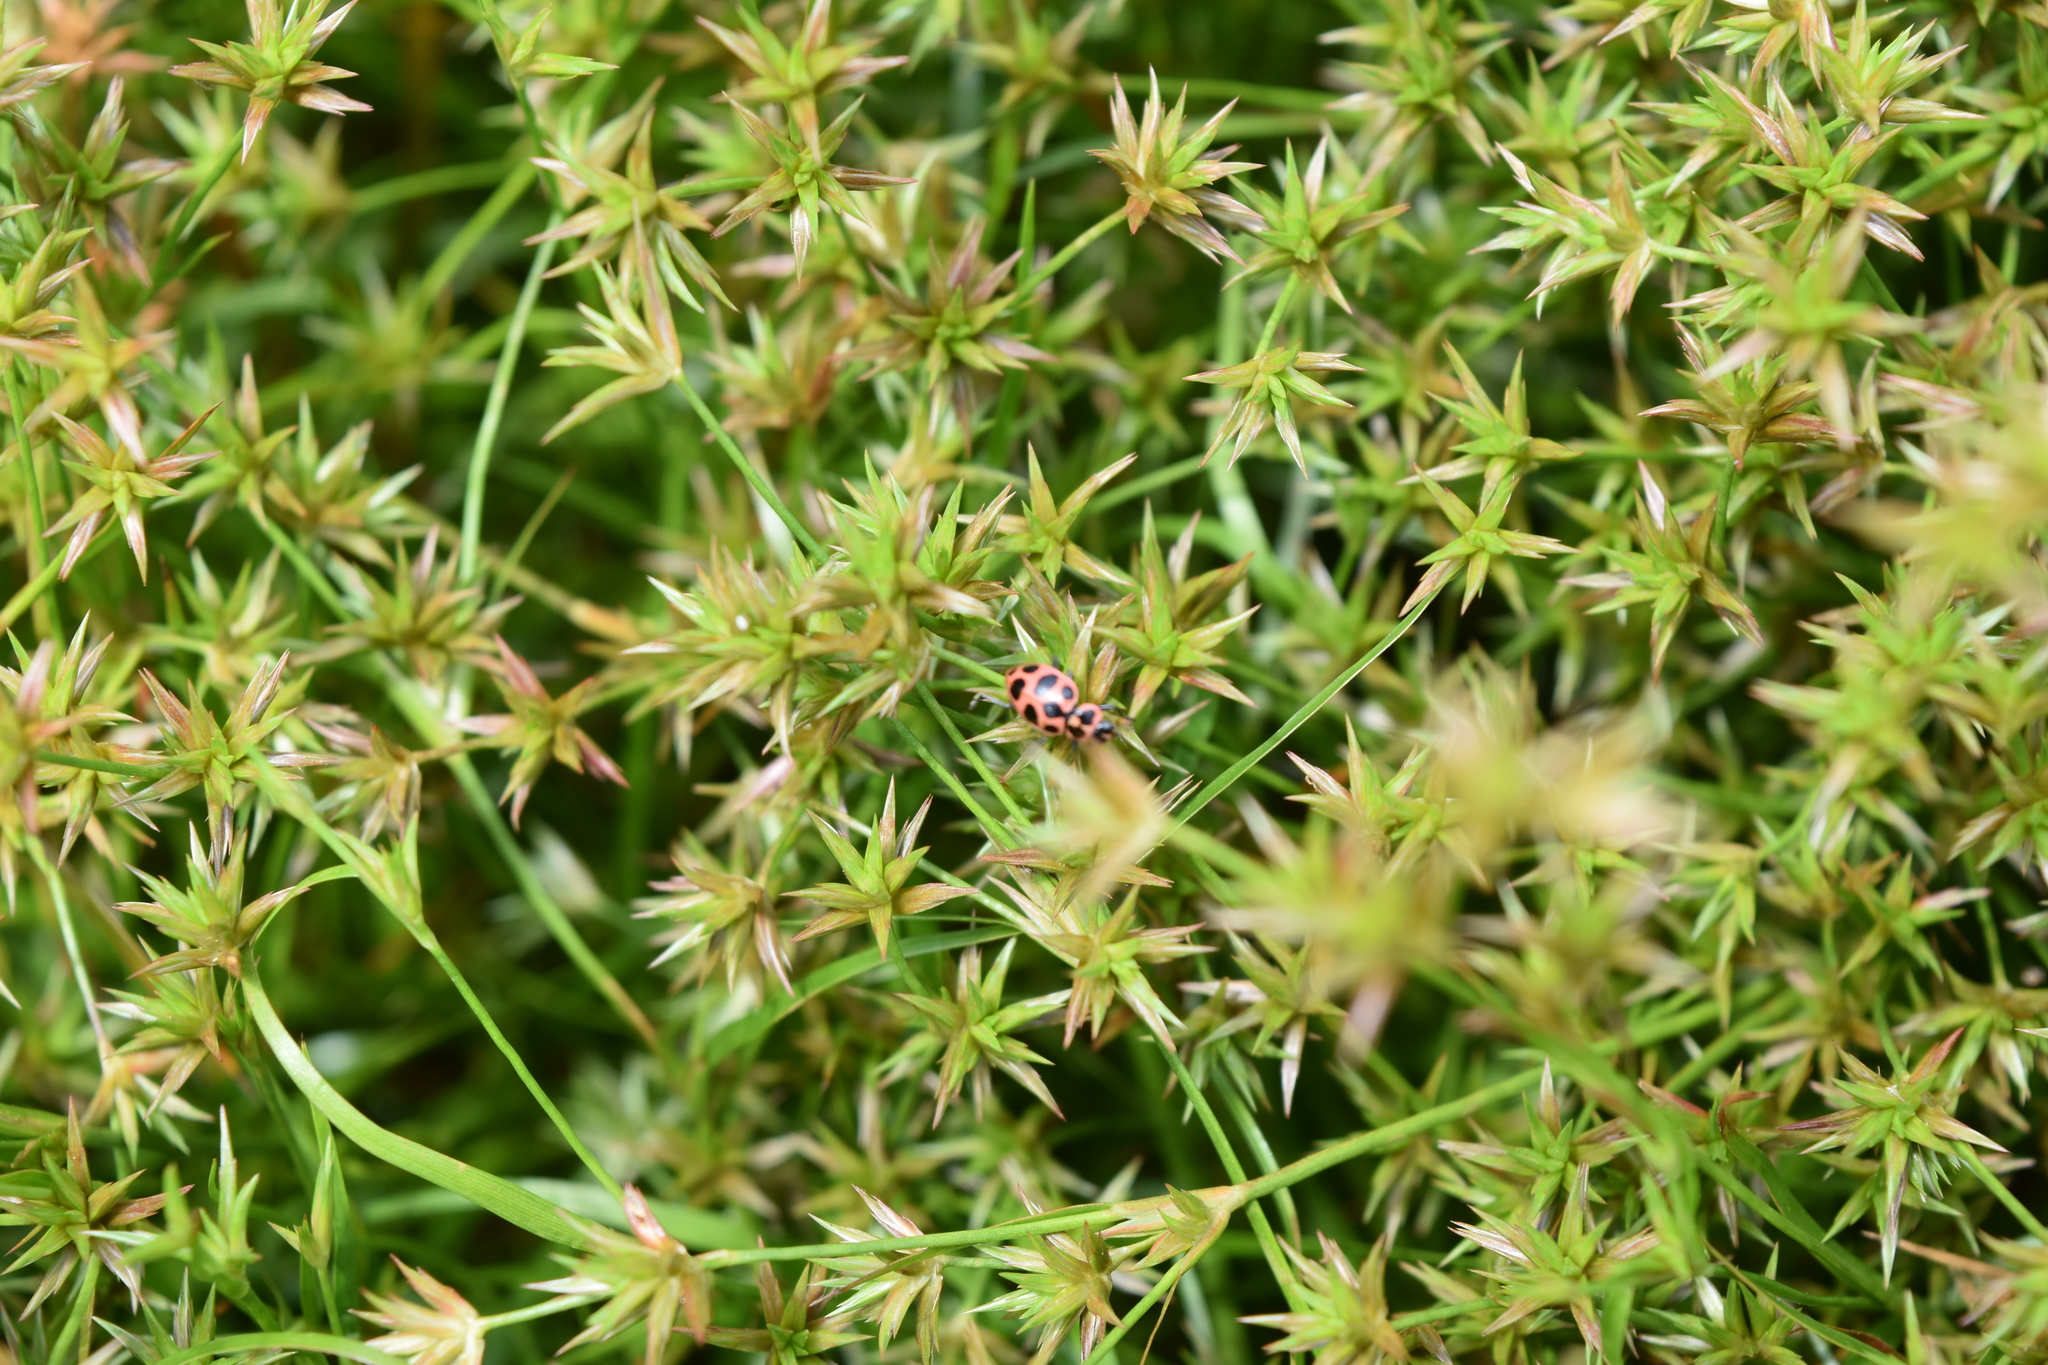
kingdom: Plantae
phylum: Tracheophyta
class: Liliopsida
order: Poales
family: Juncaceae
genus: Juncus
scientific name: Juncus repens
